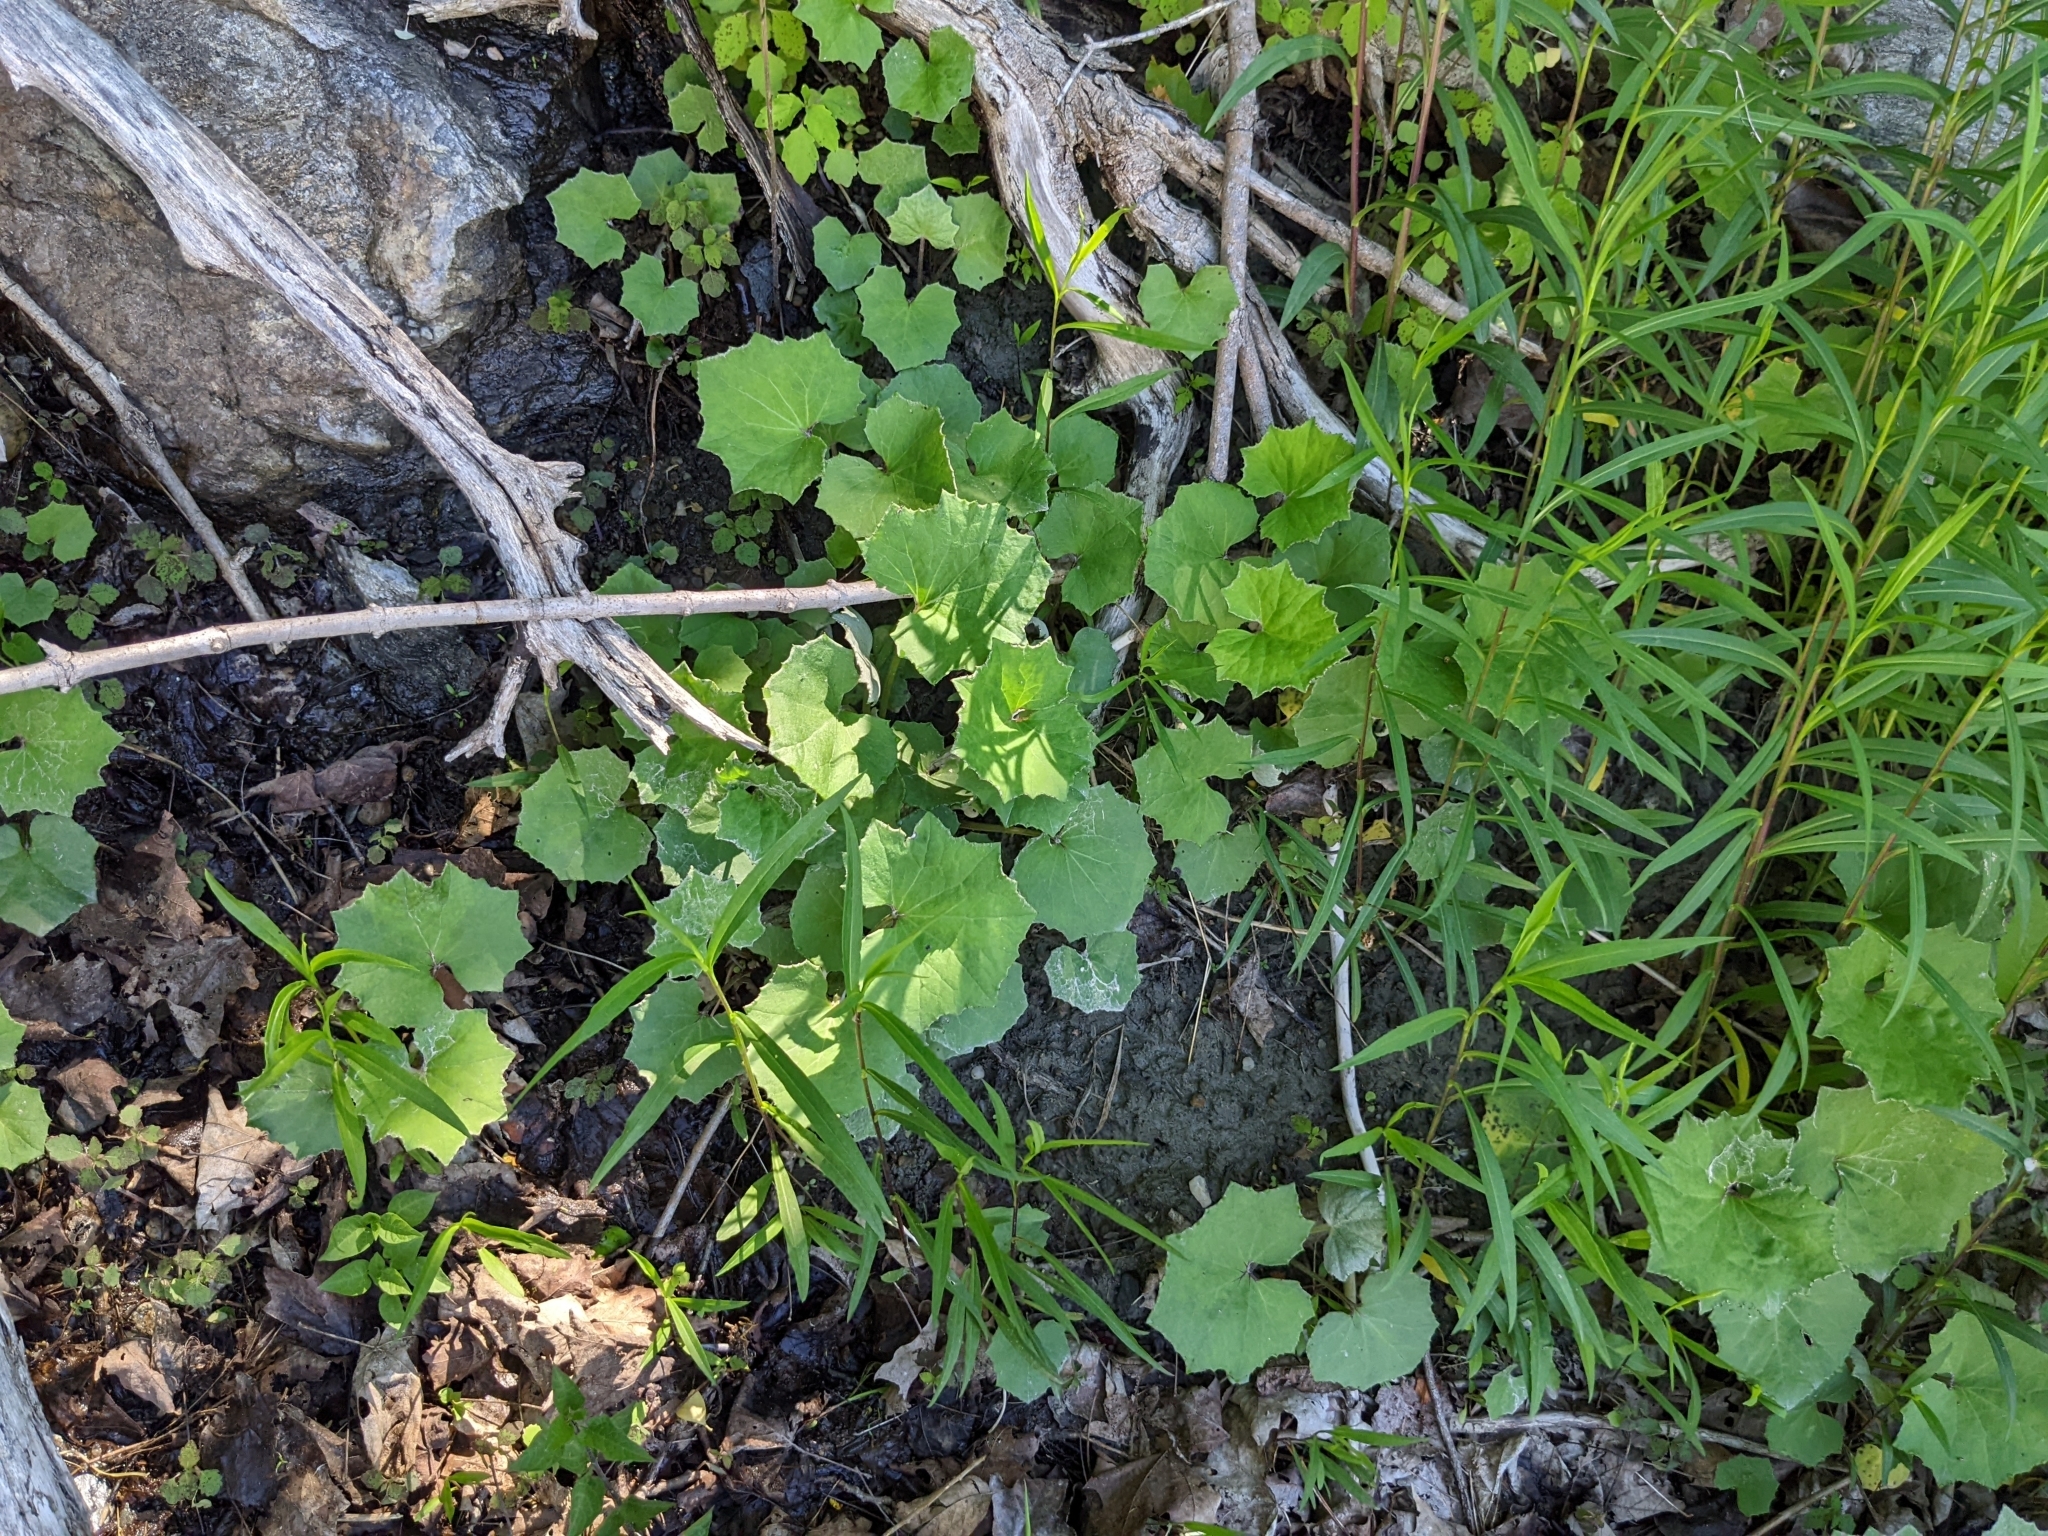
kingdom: Plantae
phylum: Tracheophyta
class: Magnoliopsida
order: Asterales
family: Asteraceae
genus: Tussilago
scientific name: Tussilago farfara
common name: Coltsfoot
